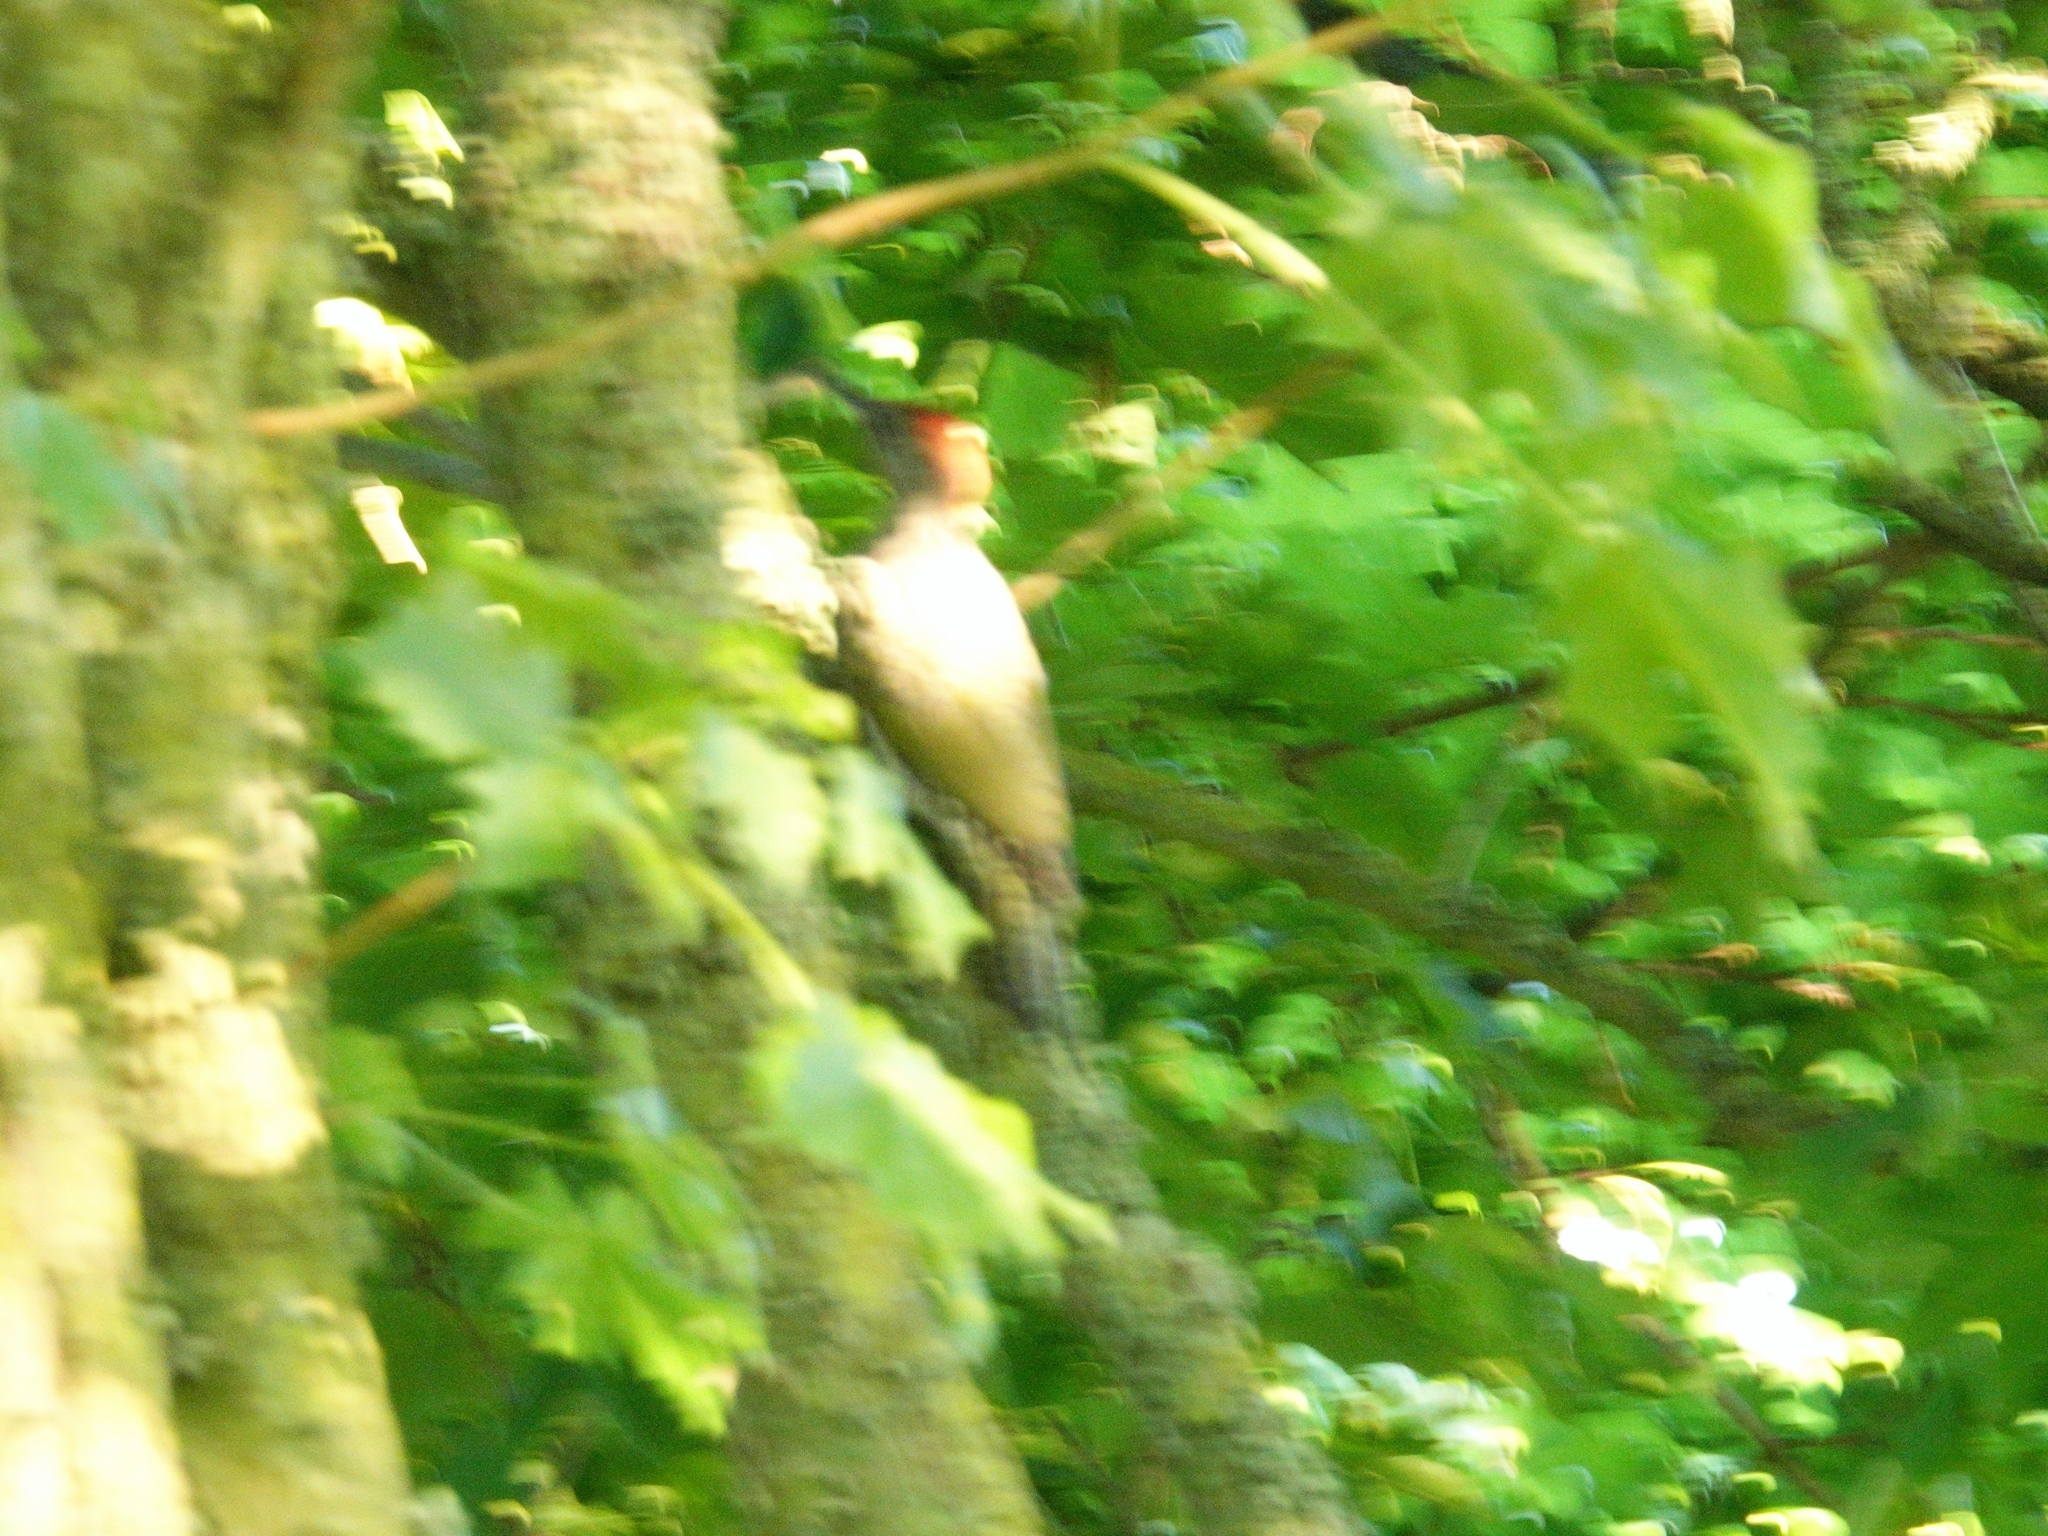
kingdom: Animalia
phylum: Chordata
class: Aves
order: Piciformes
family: Picidae
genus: Picus
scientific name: Picus viridis
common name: European green woodpecker
